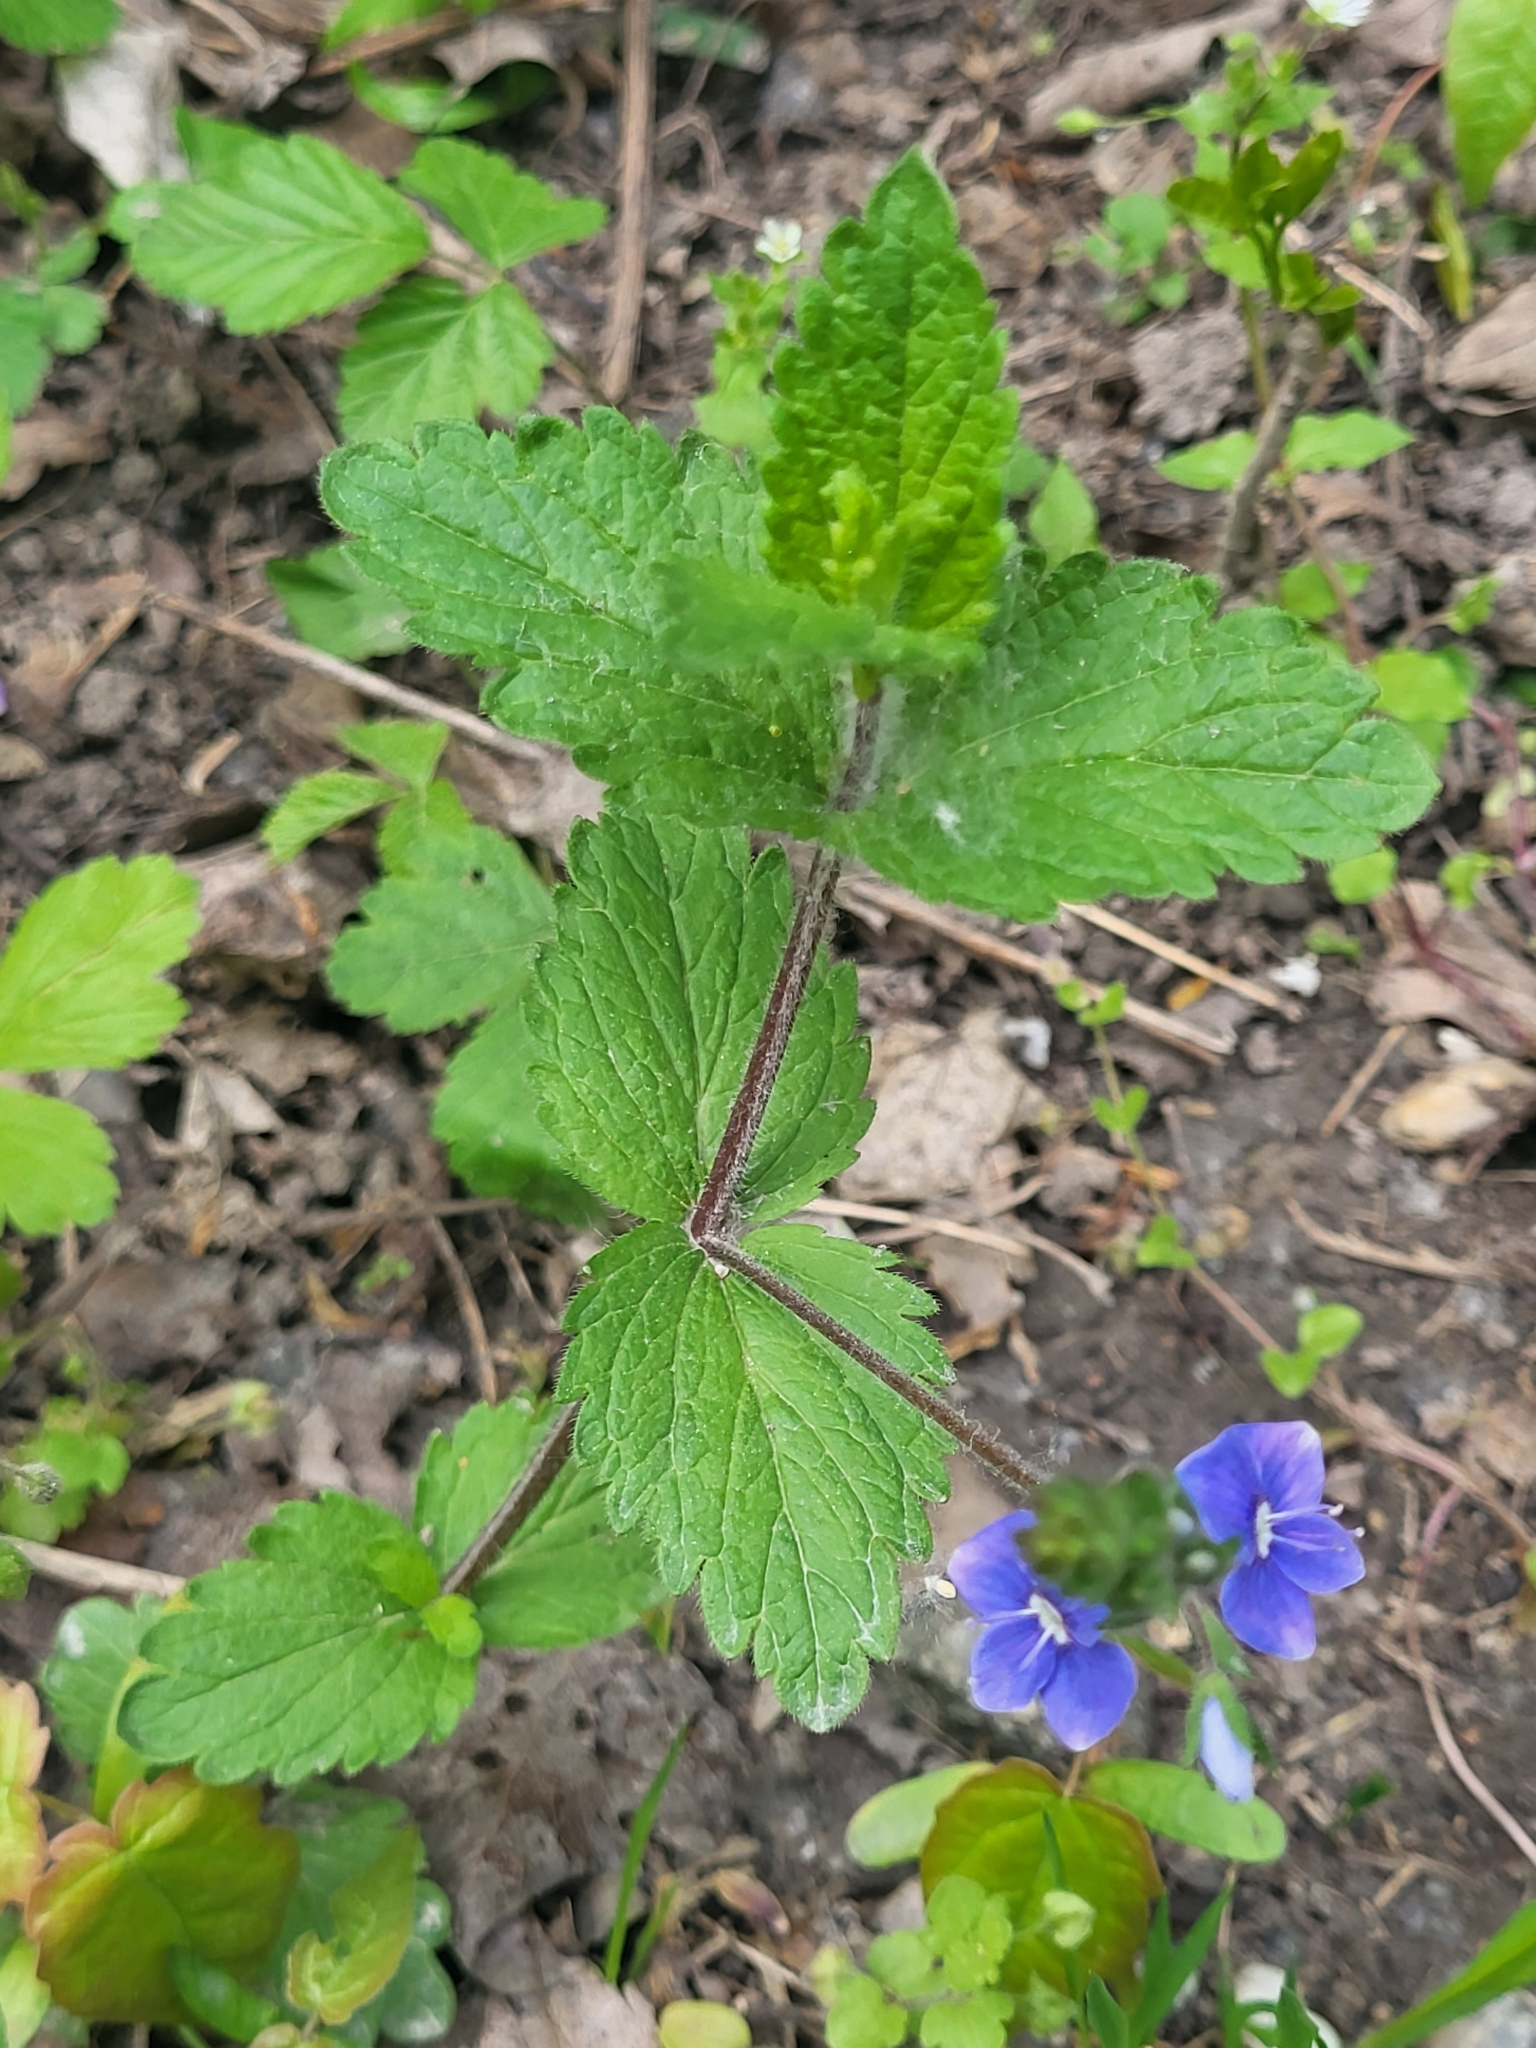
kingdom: Plantae
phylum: Tracheophyta
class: Magnoliopsida
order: Lamiales
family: Plantaginaceae
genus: Veronica
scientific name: Veronica chamaedrys
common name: Germander speedwell
